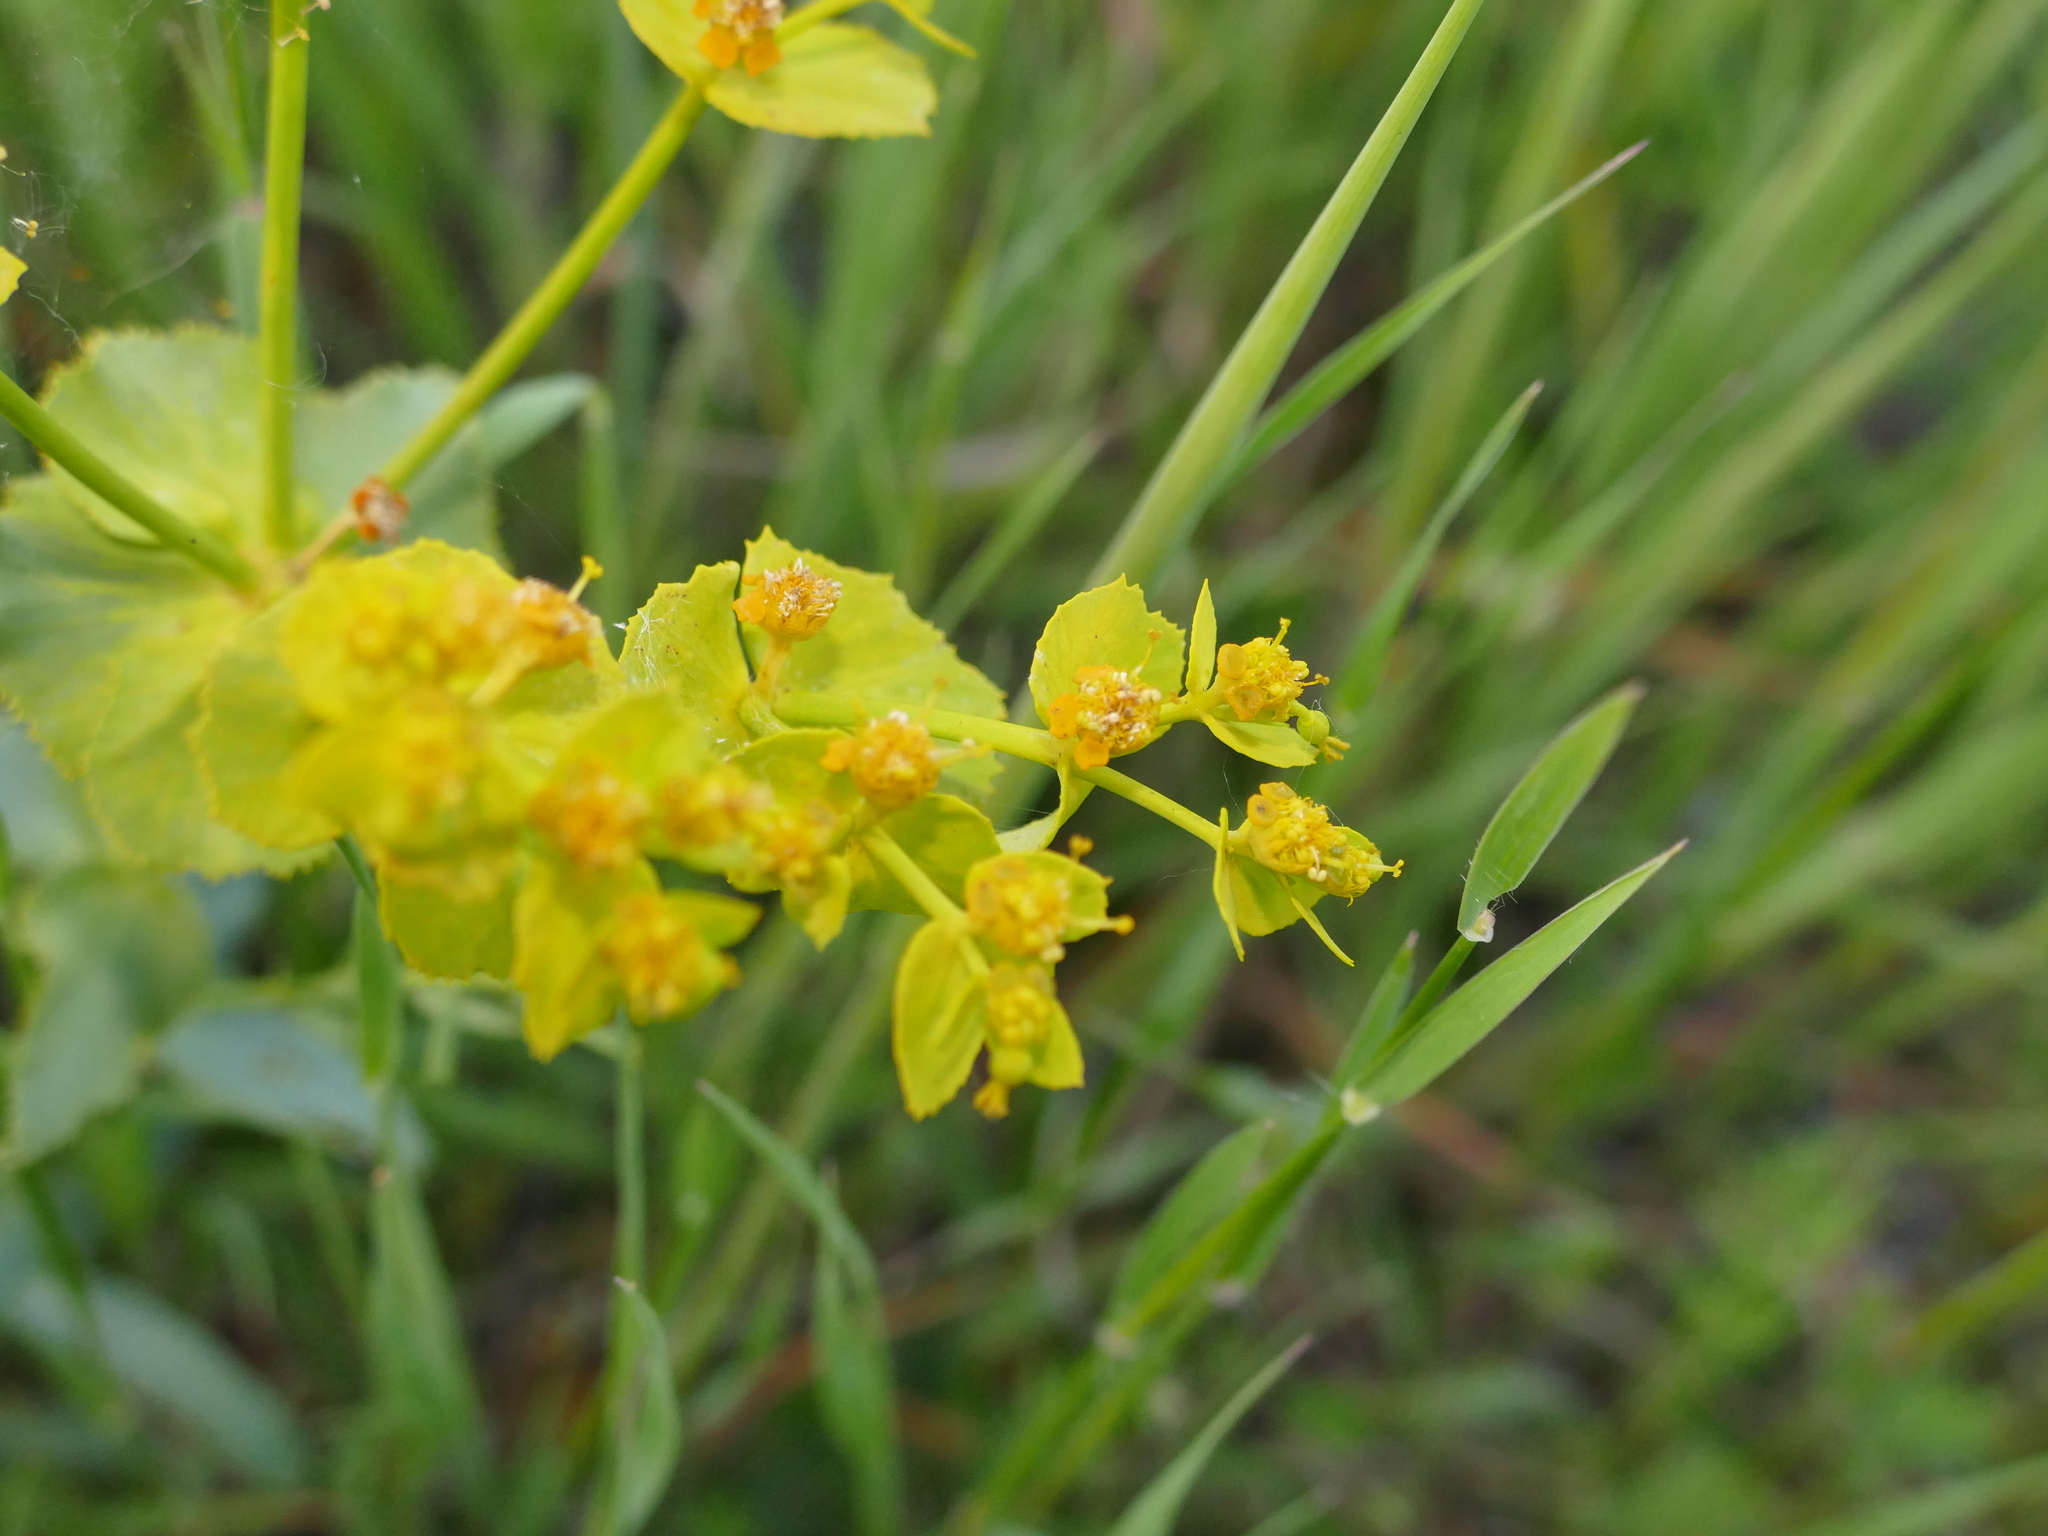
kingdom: Plantae
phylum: Tracheophyta
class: Magnoliopsida
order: Malpighiales
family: Euphorbiaceae
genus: Euphorbia
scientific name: Euphorbia serrata
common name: Serrate spurge
